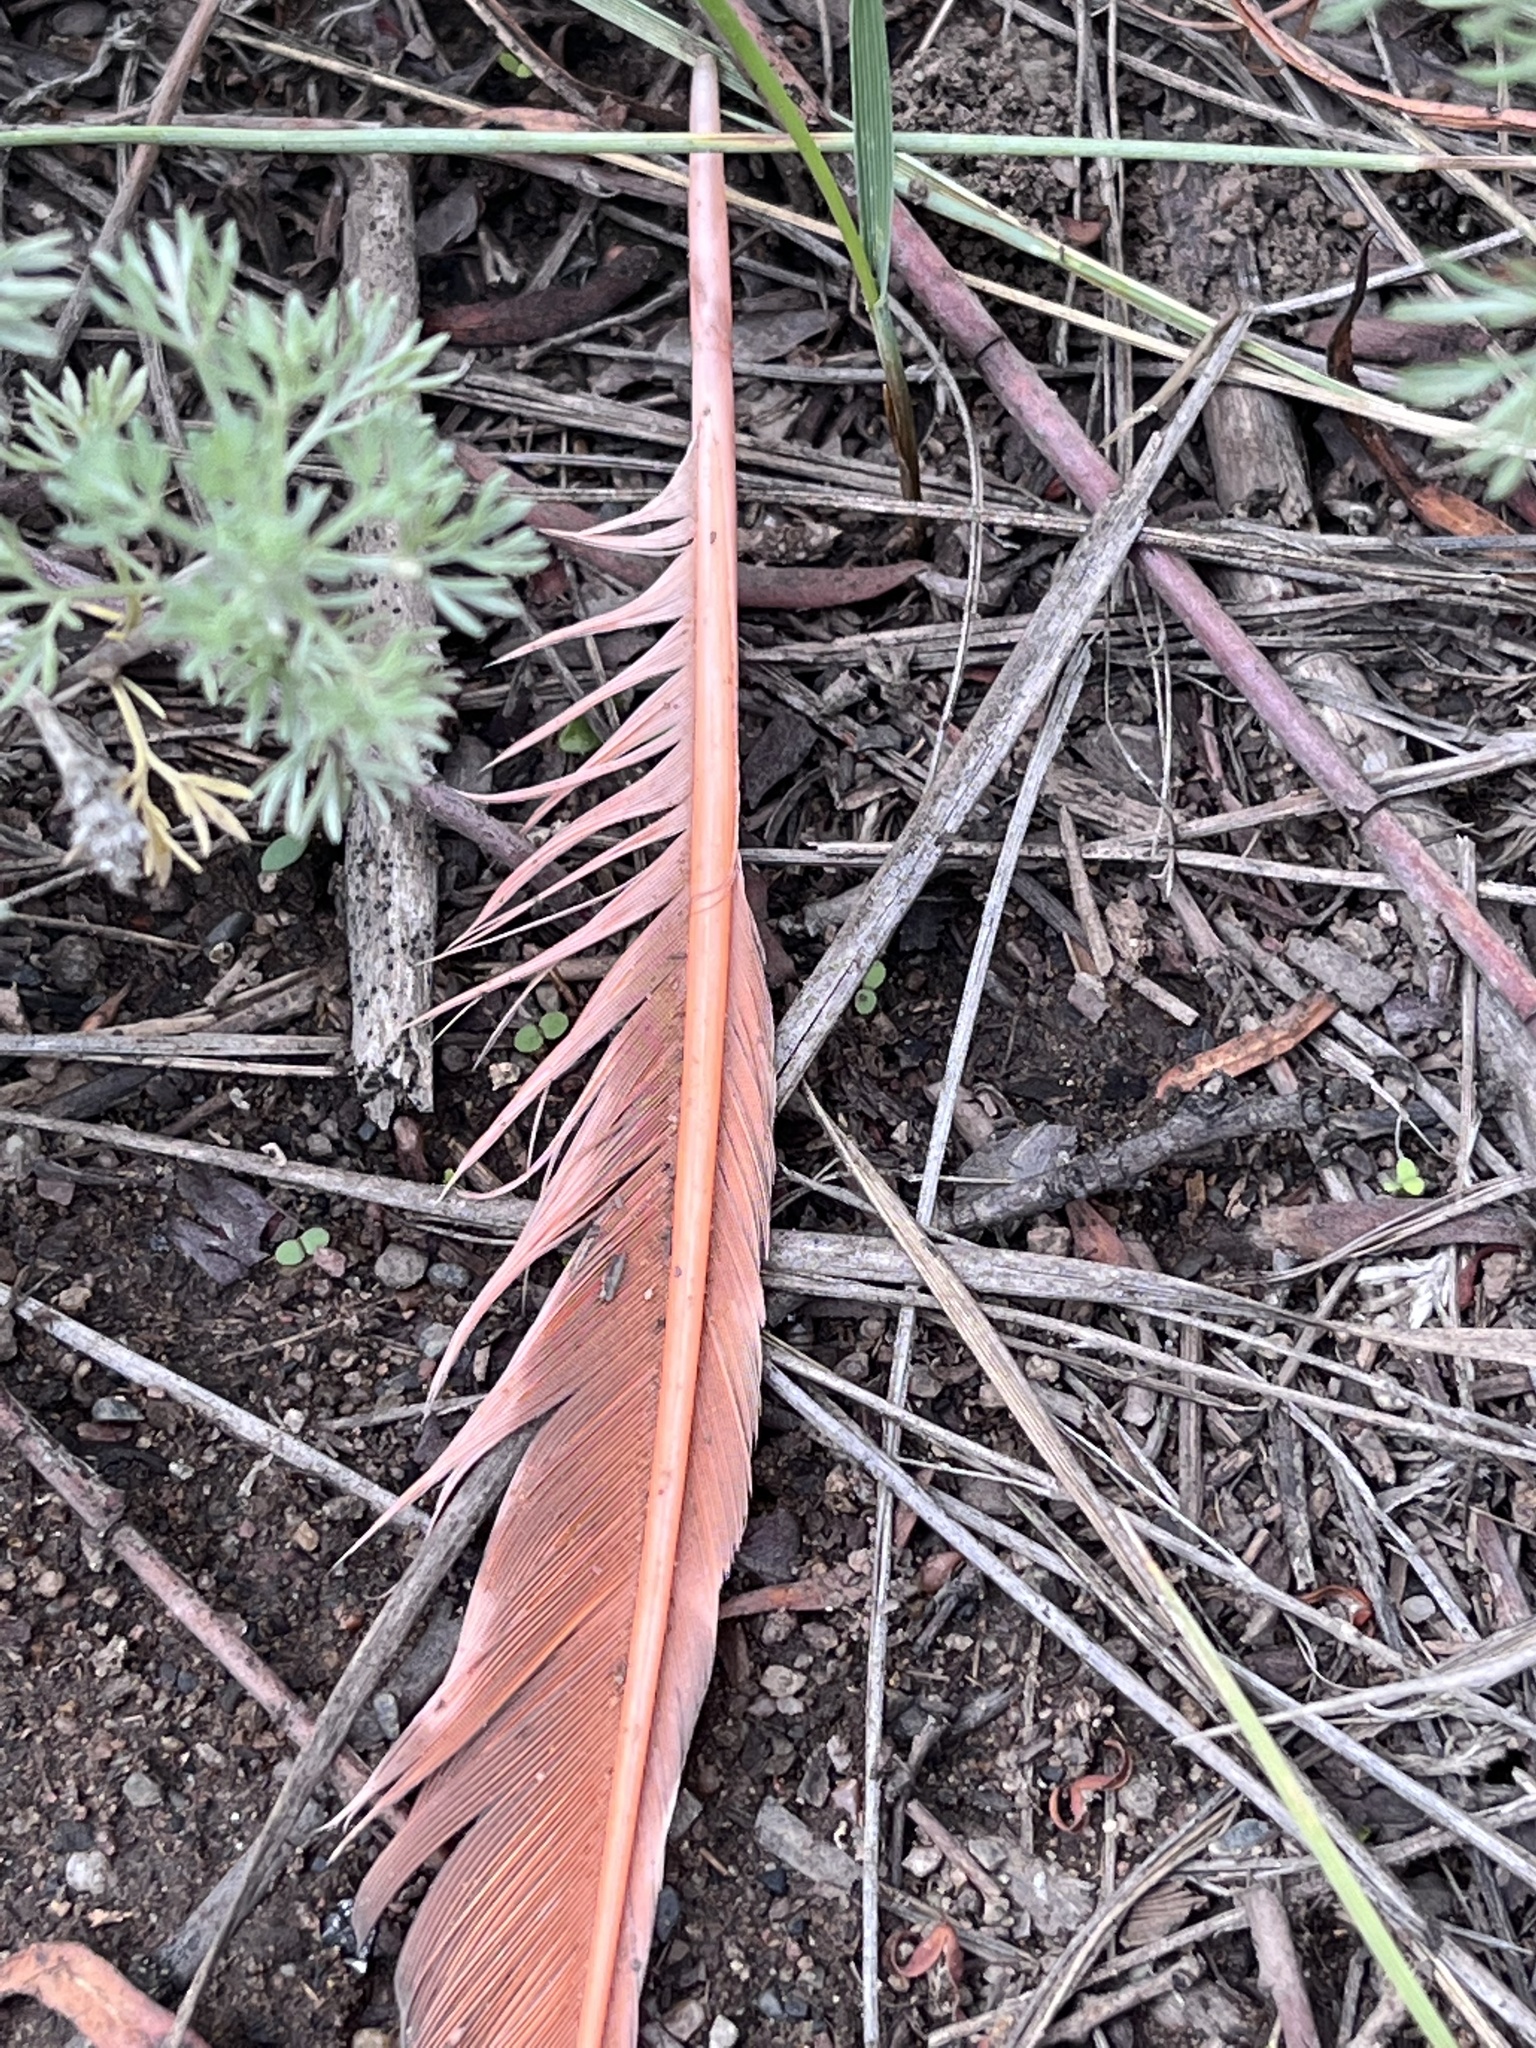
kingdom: Animalia
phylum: Chordata
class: Aves
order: Piciformes
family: Picidae
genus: Colaptes
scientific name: Colaptes auratus
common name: Northern flicker
